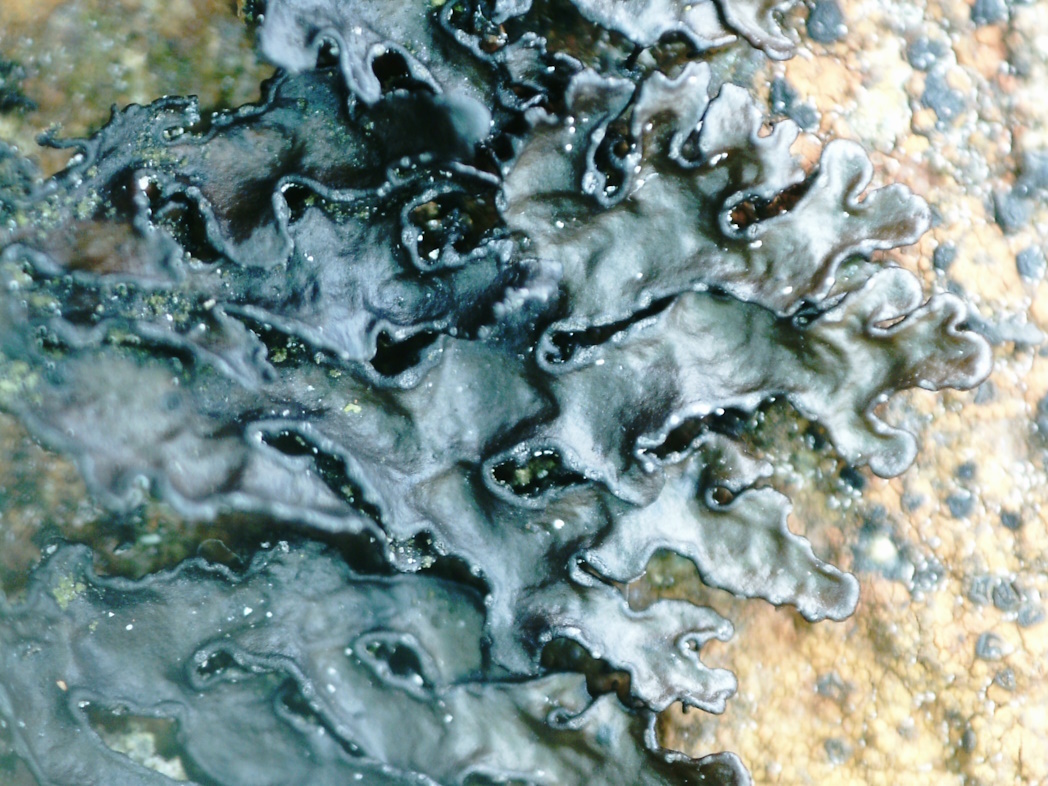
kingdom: Fungi
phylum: Ascomycota
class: Lecanoromycetes
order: Lecanorales
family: Parmeliaceae
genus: Melanelia
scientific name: Melanelia hepatizon
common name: Rimmed camouflage lichen
